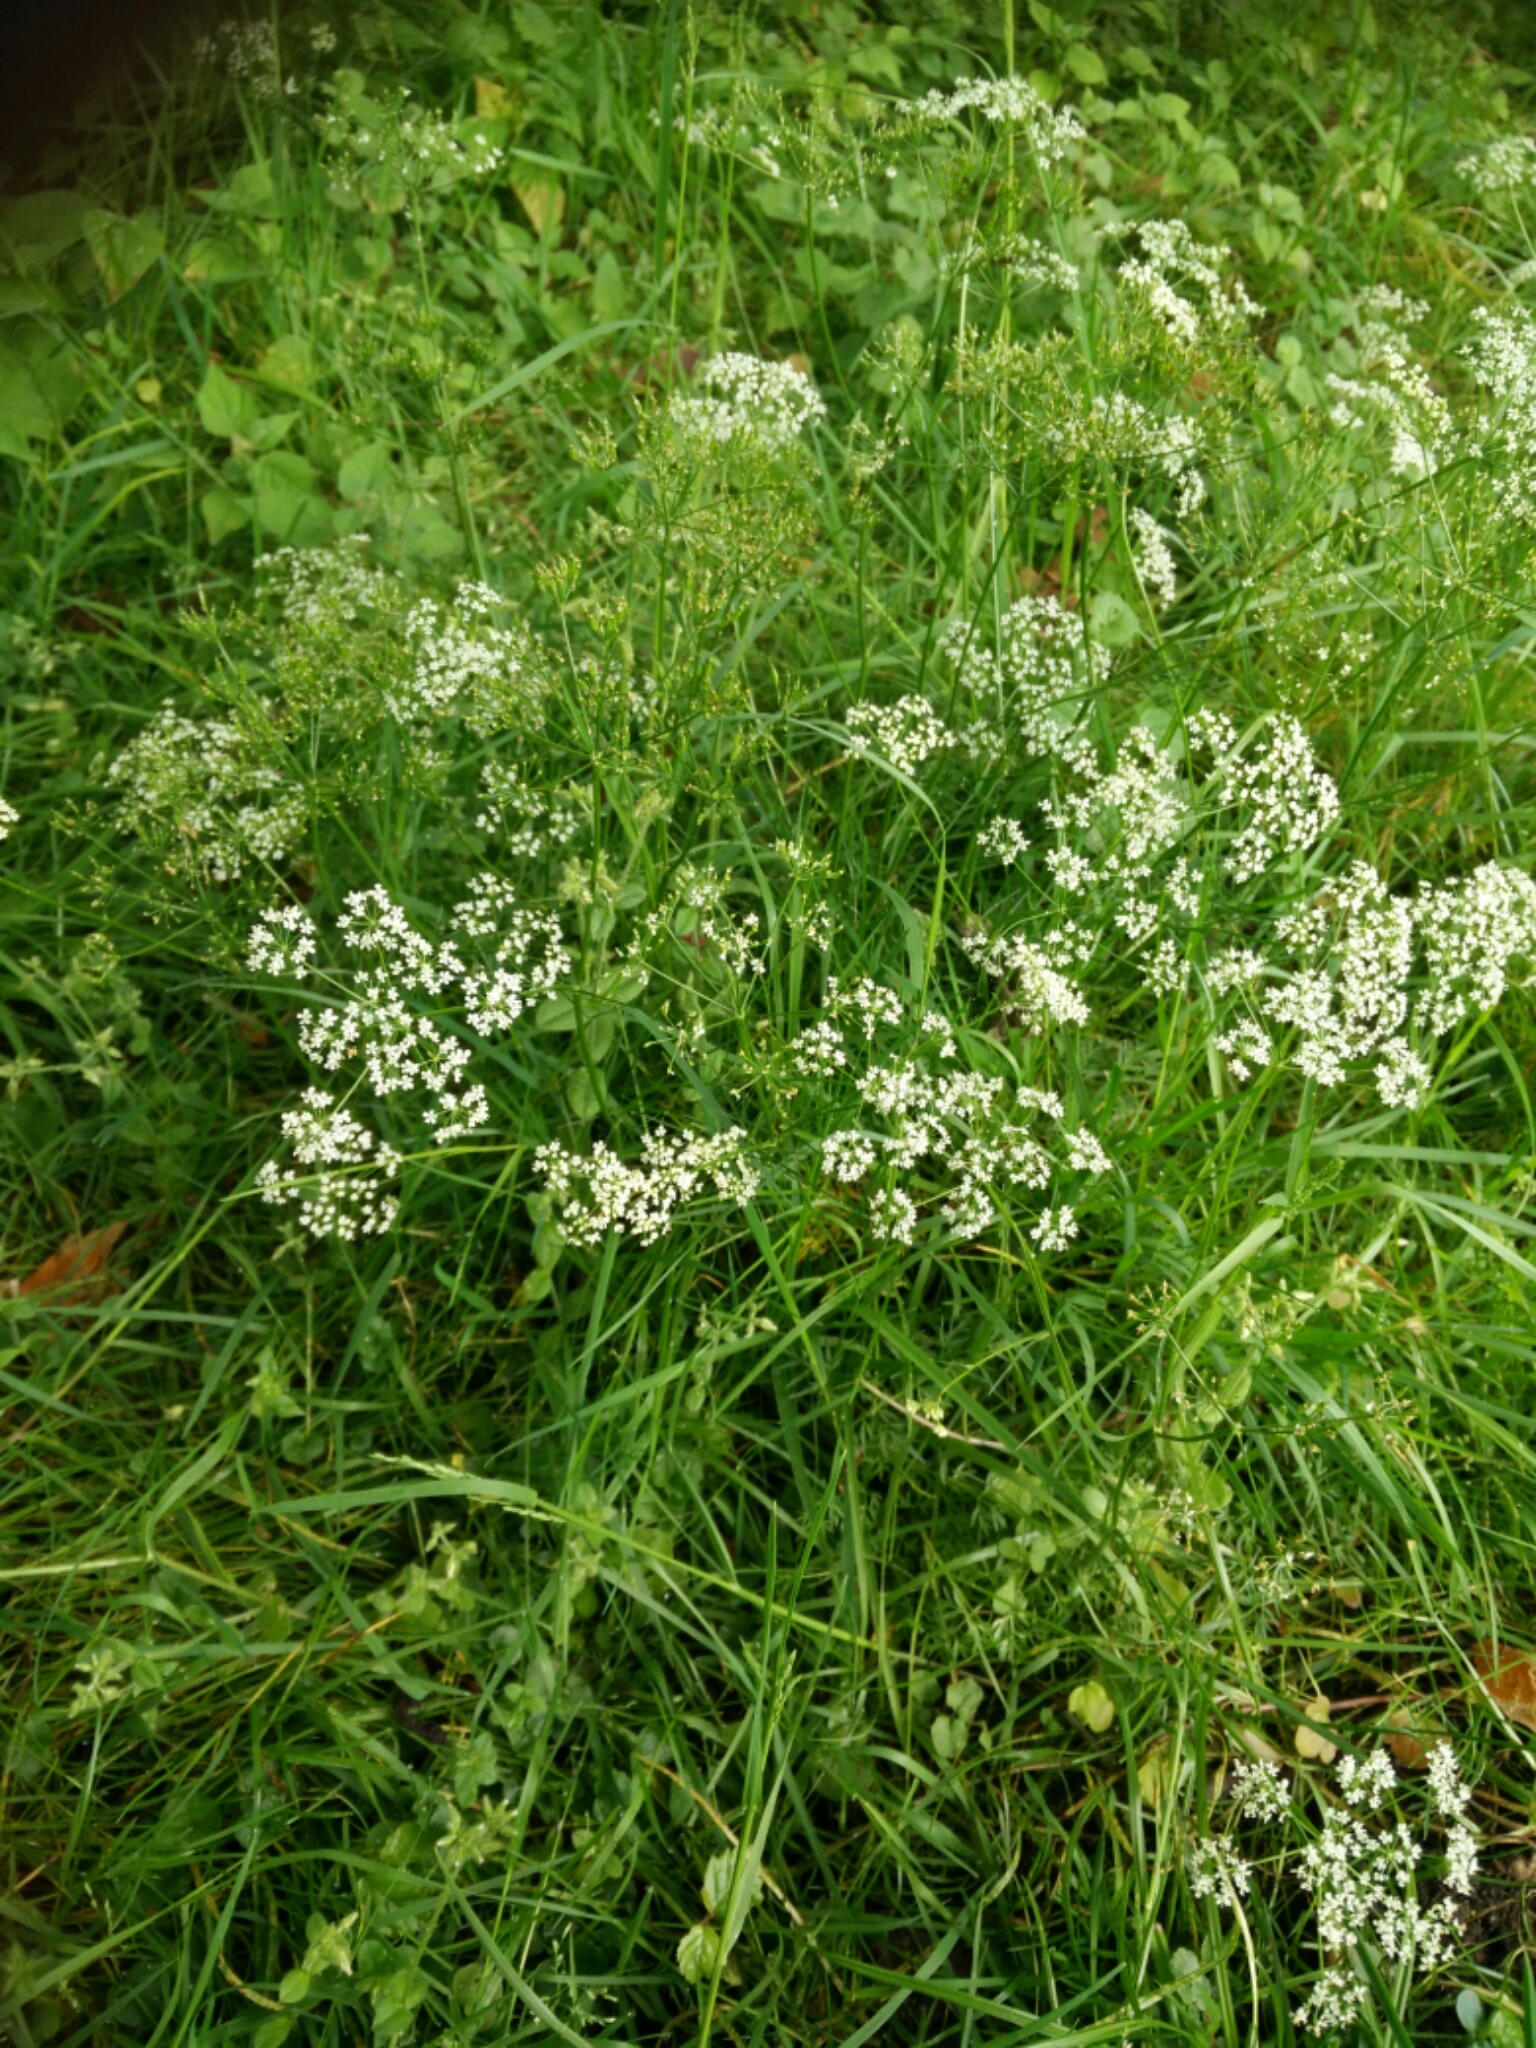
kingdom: Plantae
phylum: Tracheophyta
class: Magnoliopsida
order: Apiales
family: Apiaceae
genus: Conopodium
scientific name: Conopodium majus
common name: Pignut
